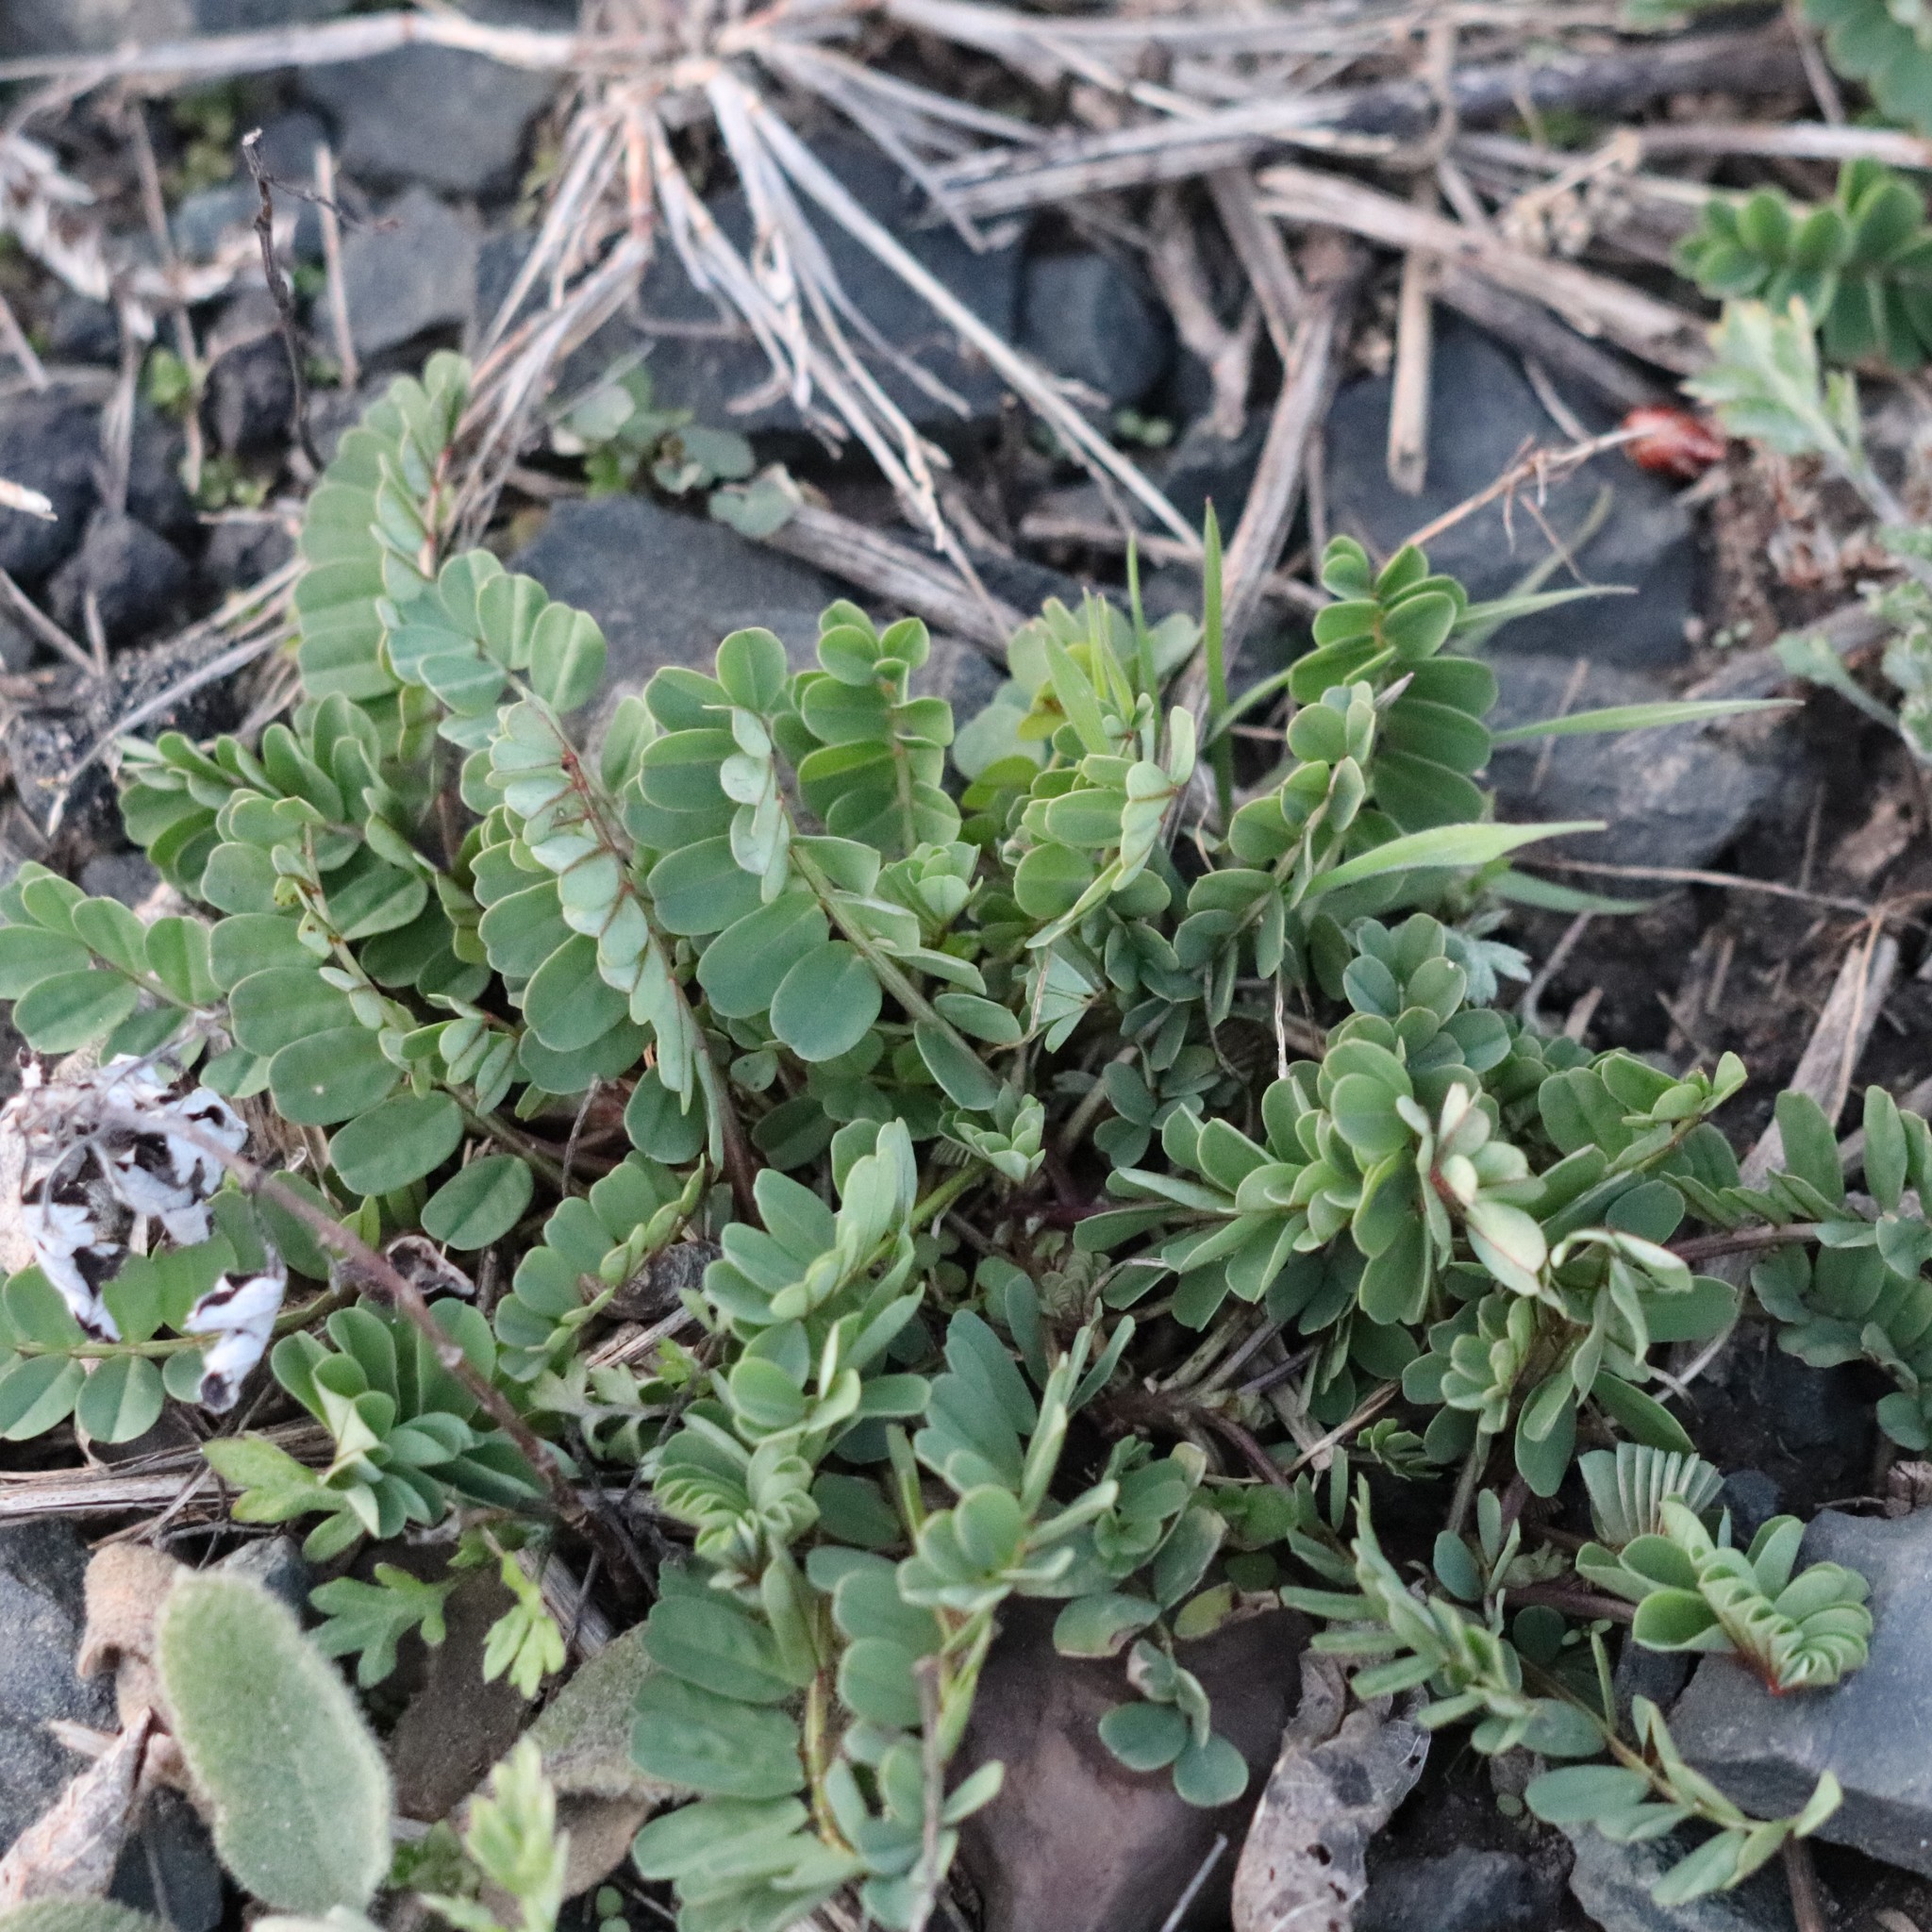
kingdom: Plantae
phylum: Tracheophyta
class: Magnoliopsida
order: Fabales
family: Fabaceae
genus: Coronilla
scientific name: Coronilla varia
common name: Crownvetch
